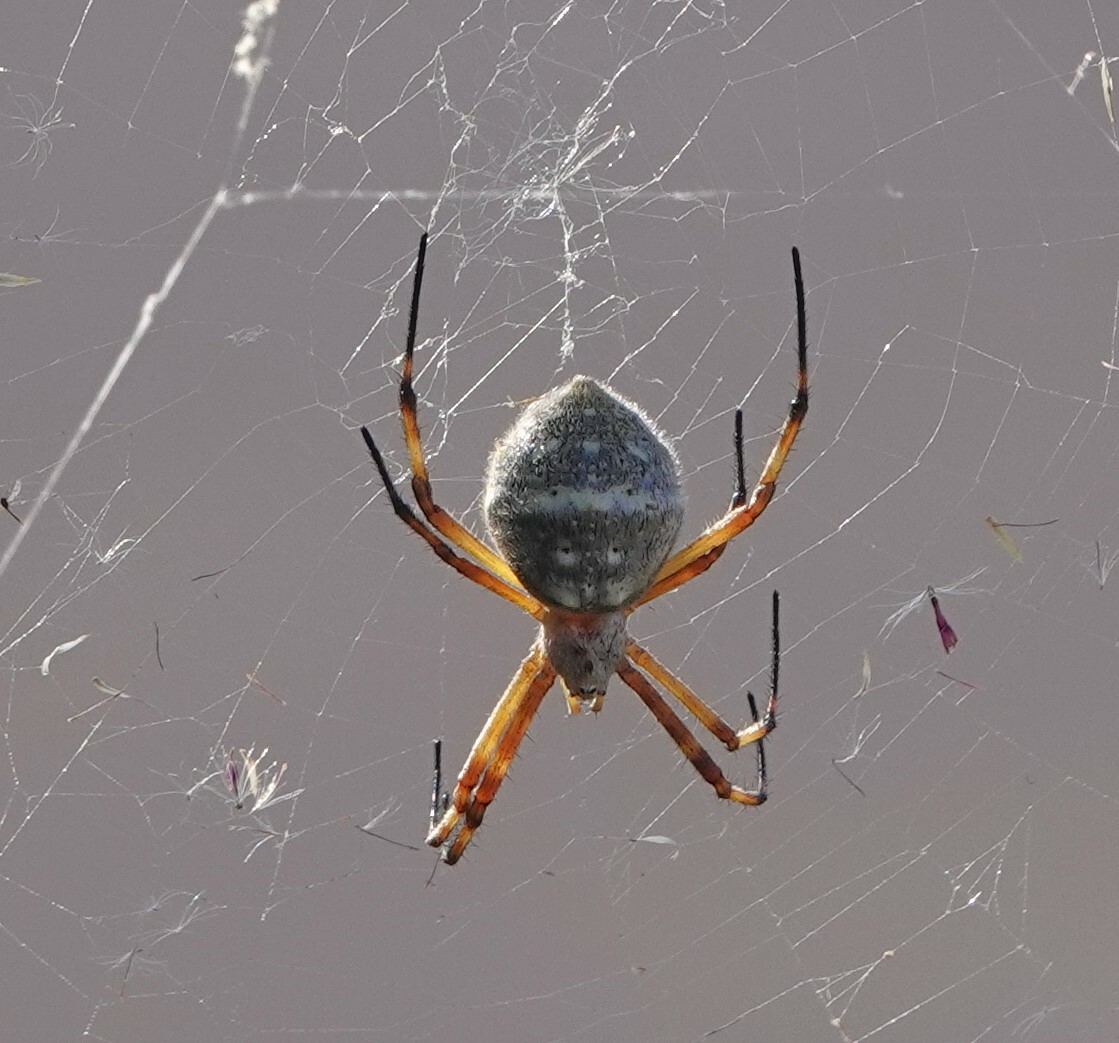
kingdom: Animalia
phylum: Arthropoda
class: Arachnida
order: Araneae
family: Araneidae
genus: Argiope
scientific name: Argiope argentata
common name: Orb weavers
